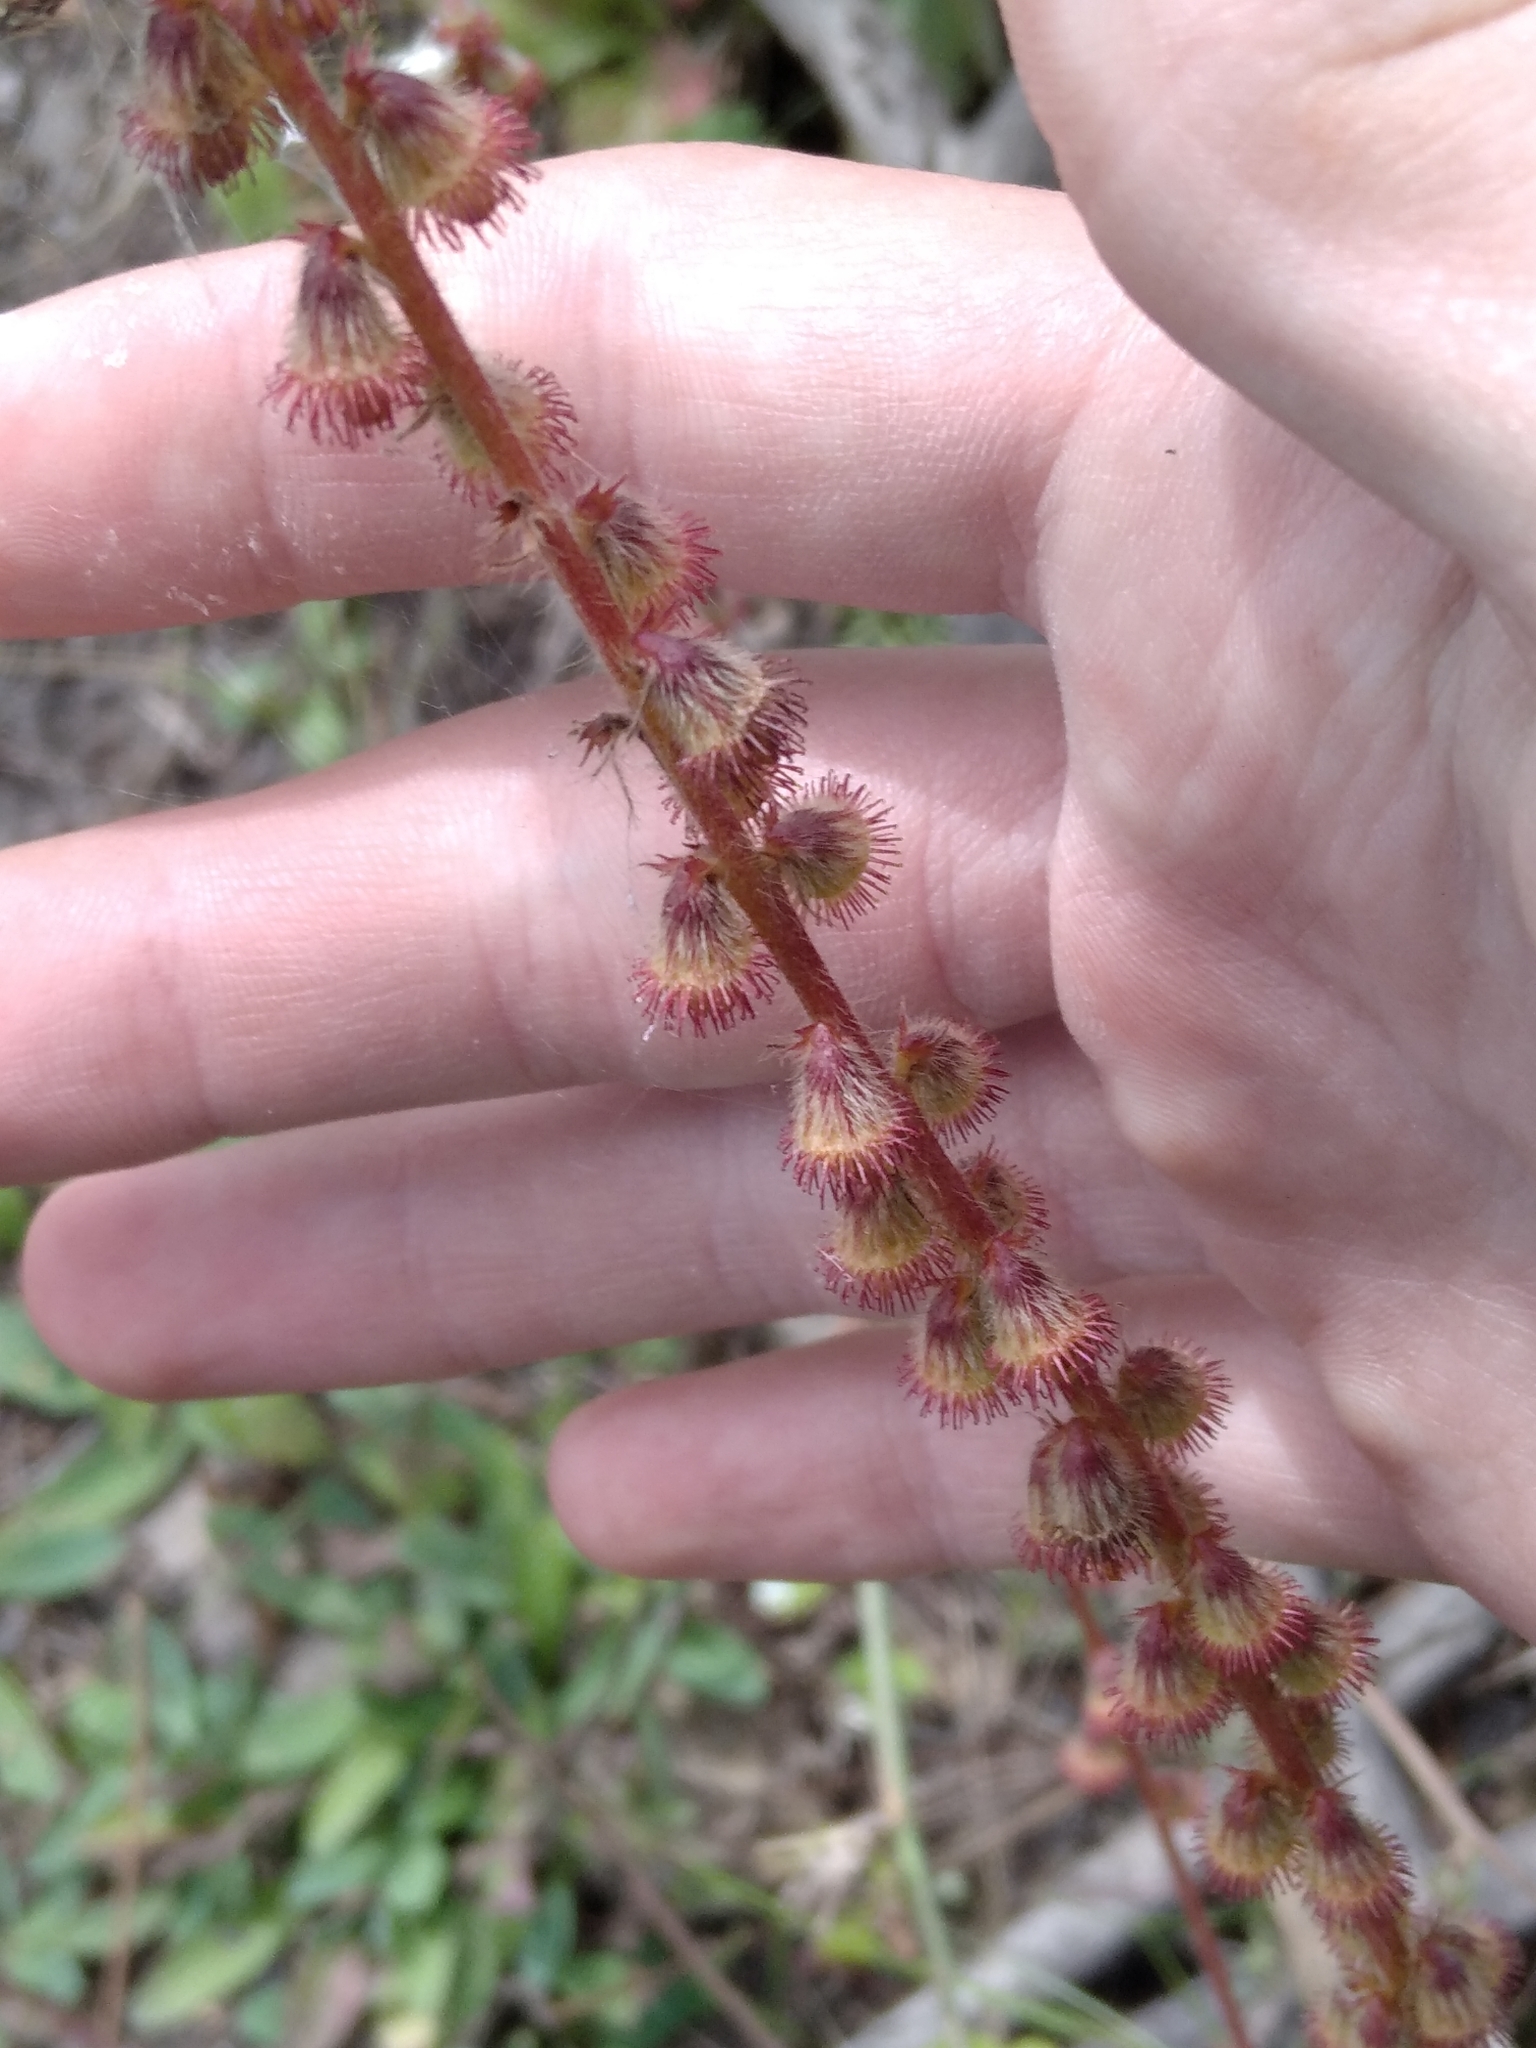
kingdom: Plantae
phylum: Tracheophyta
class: Magnoliopsida
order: Rosales
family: Rosaceae
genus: Agrimonia
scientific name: Agrimonia eupatoria
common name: Agrimony
